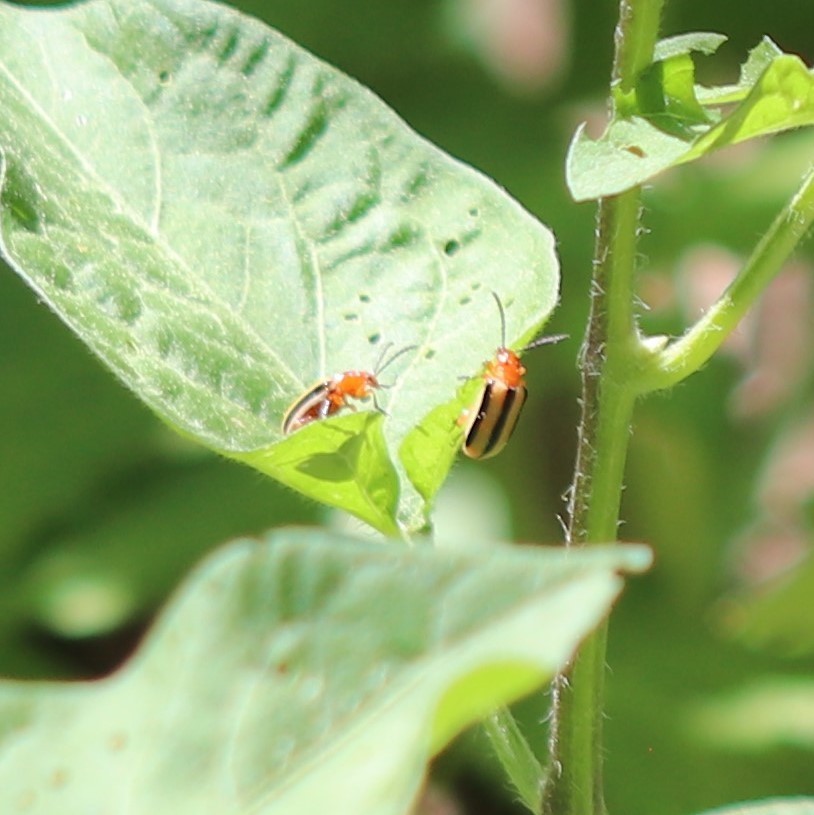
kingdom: Animalia
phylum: Arthropoda
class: Insecta
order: Coleoptera
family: Chrysomelidae
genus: Lema
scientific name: Lema daturaphila
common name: Leaf beetle
